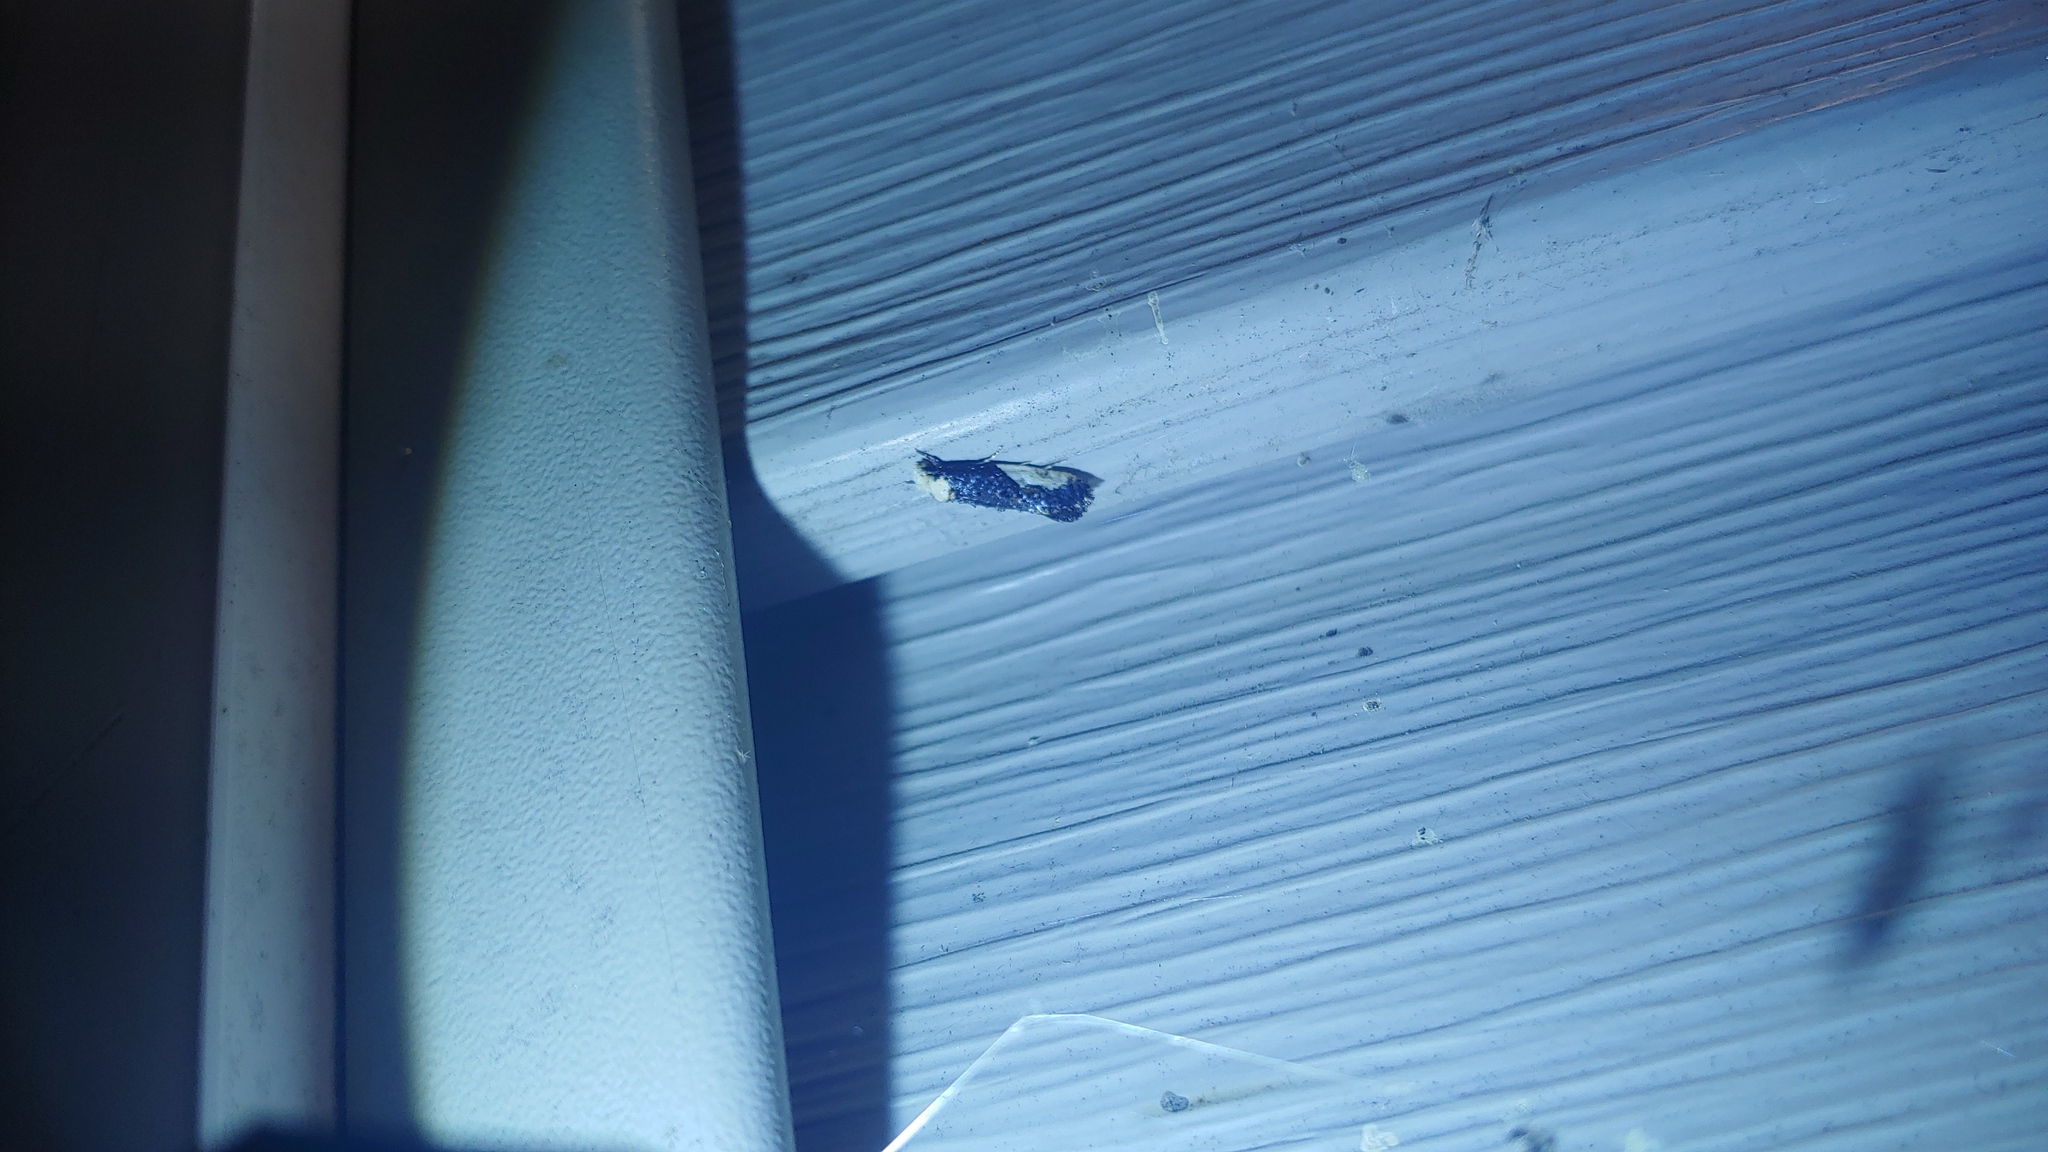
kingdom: Animalia
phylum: Arthropoda
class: Insecta
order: Lepidoptera
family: Tineidae
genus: Monopis
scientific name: Monopis longella
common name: Pavlovski's monopis moth
